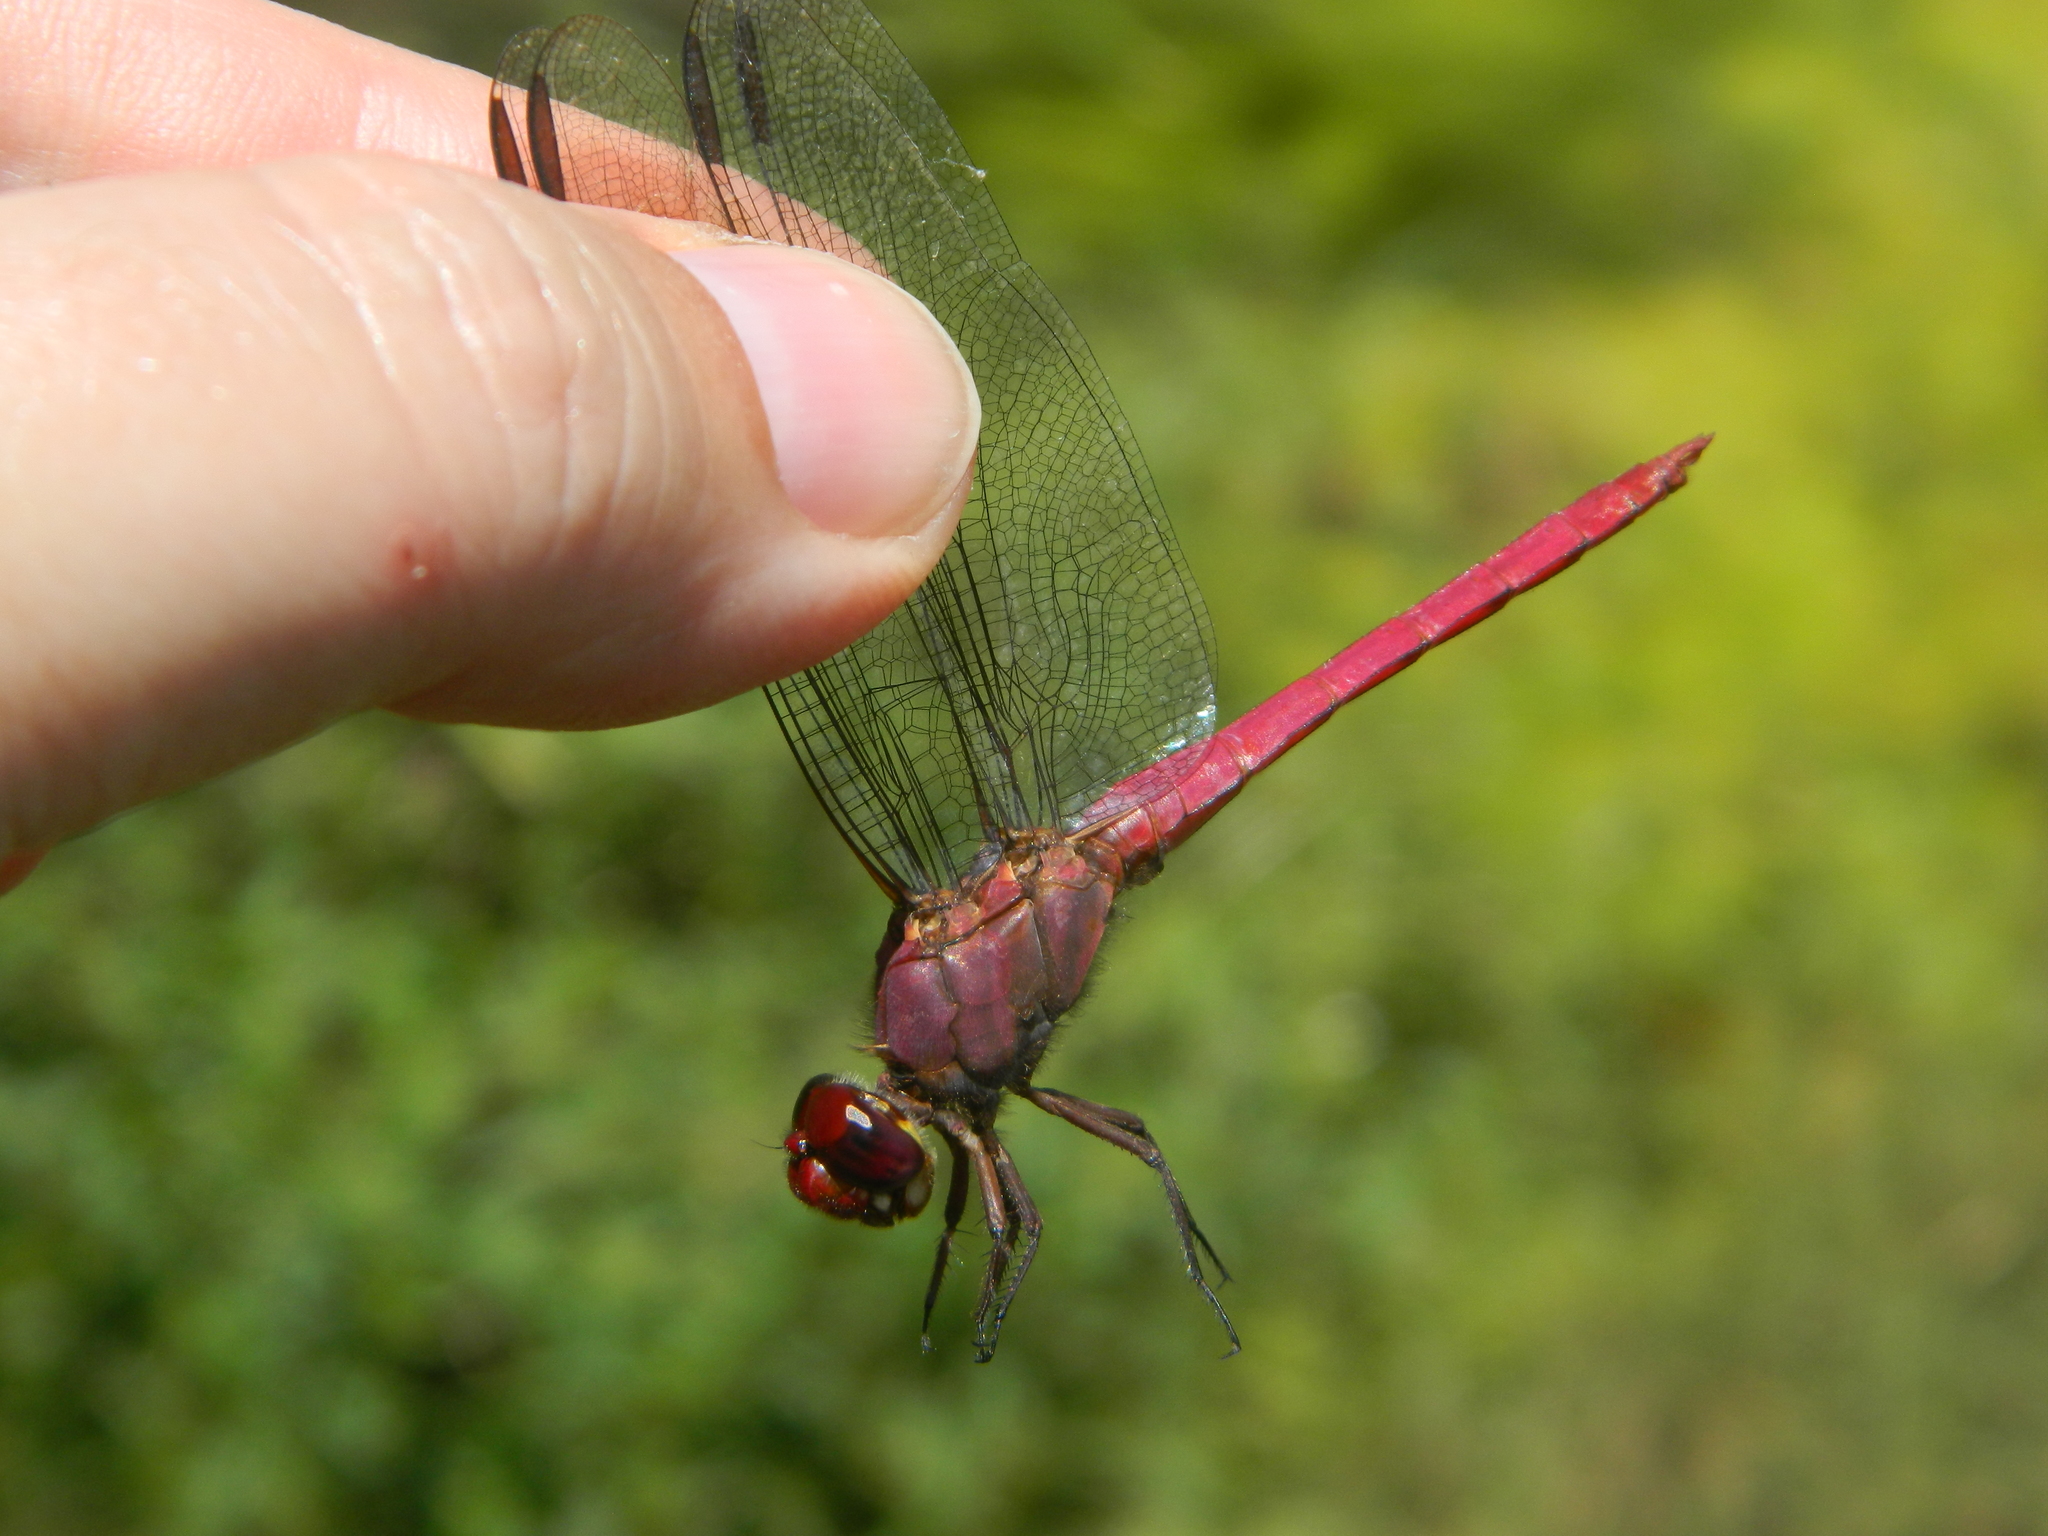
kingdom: Animalia
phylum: Arthropoda
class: Insecta
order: Odonata
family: Libellulidae
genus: Orthemis
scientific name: Orthemis macrostigma
